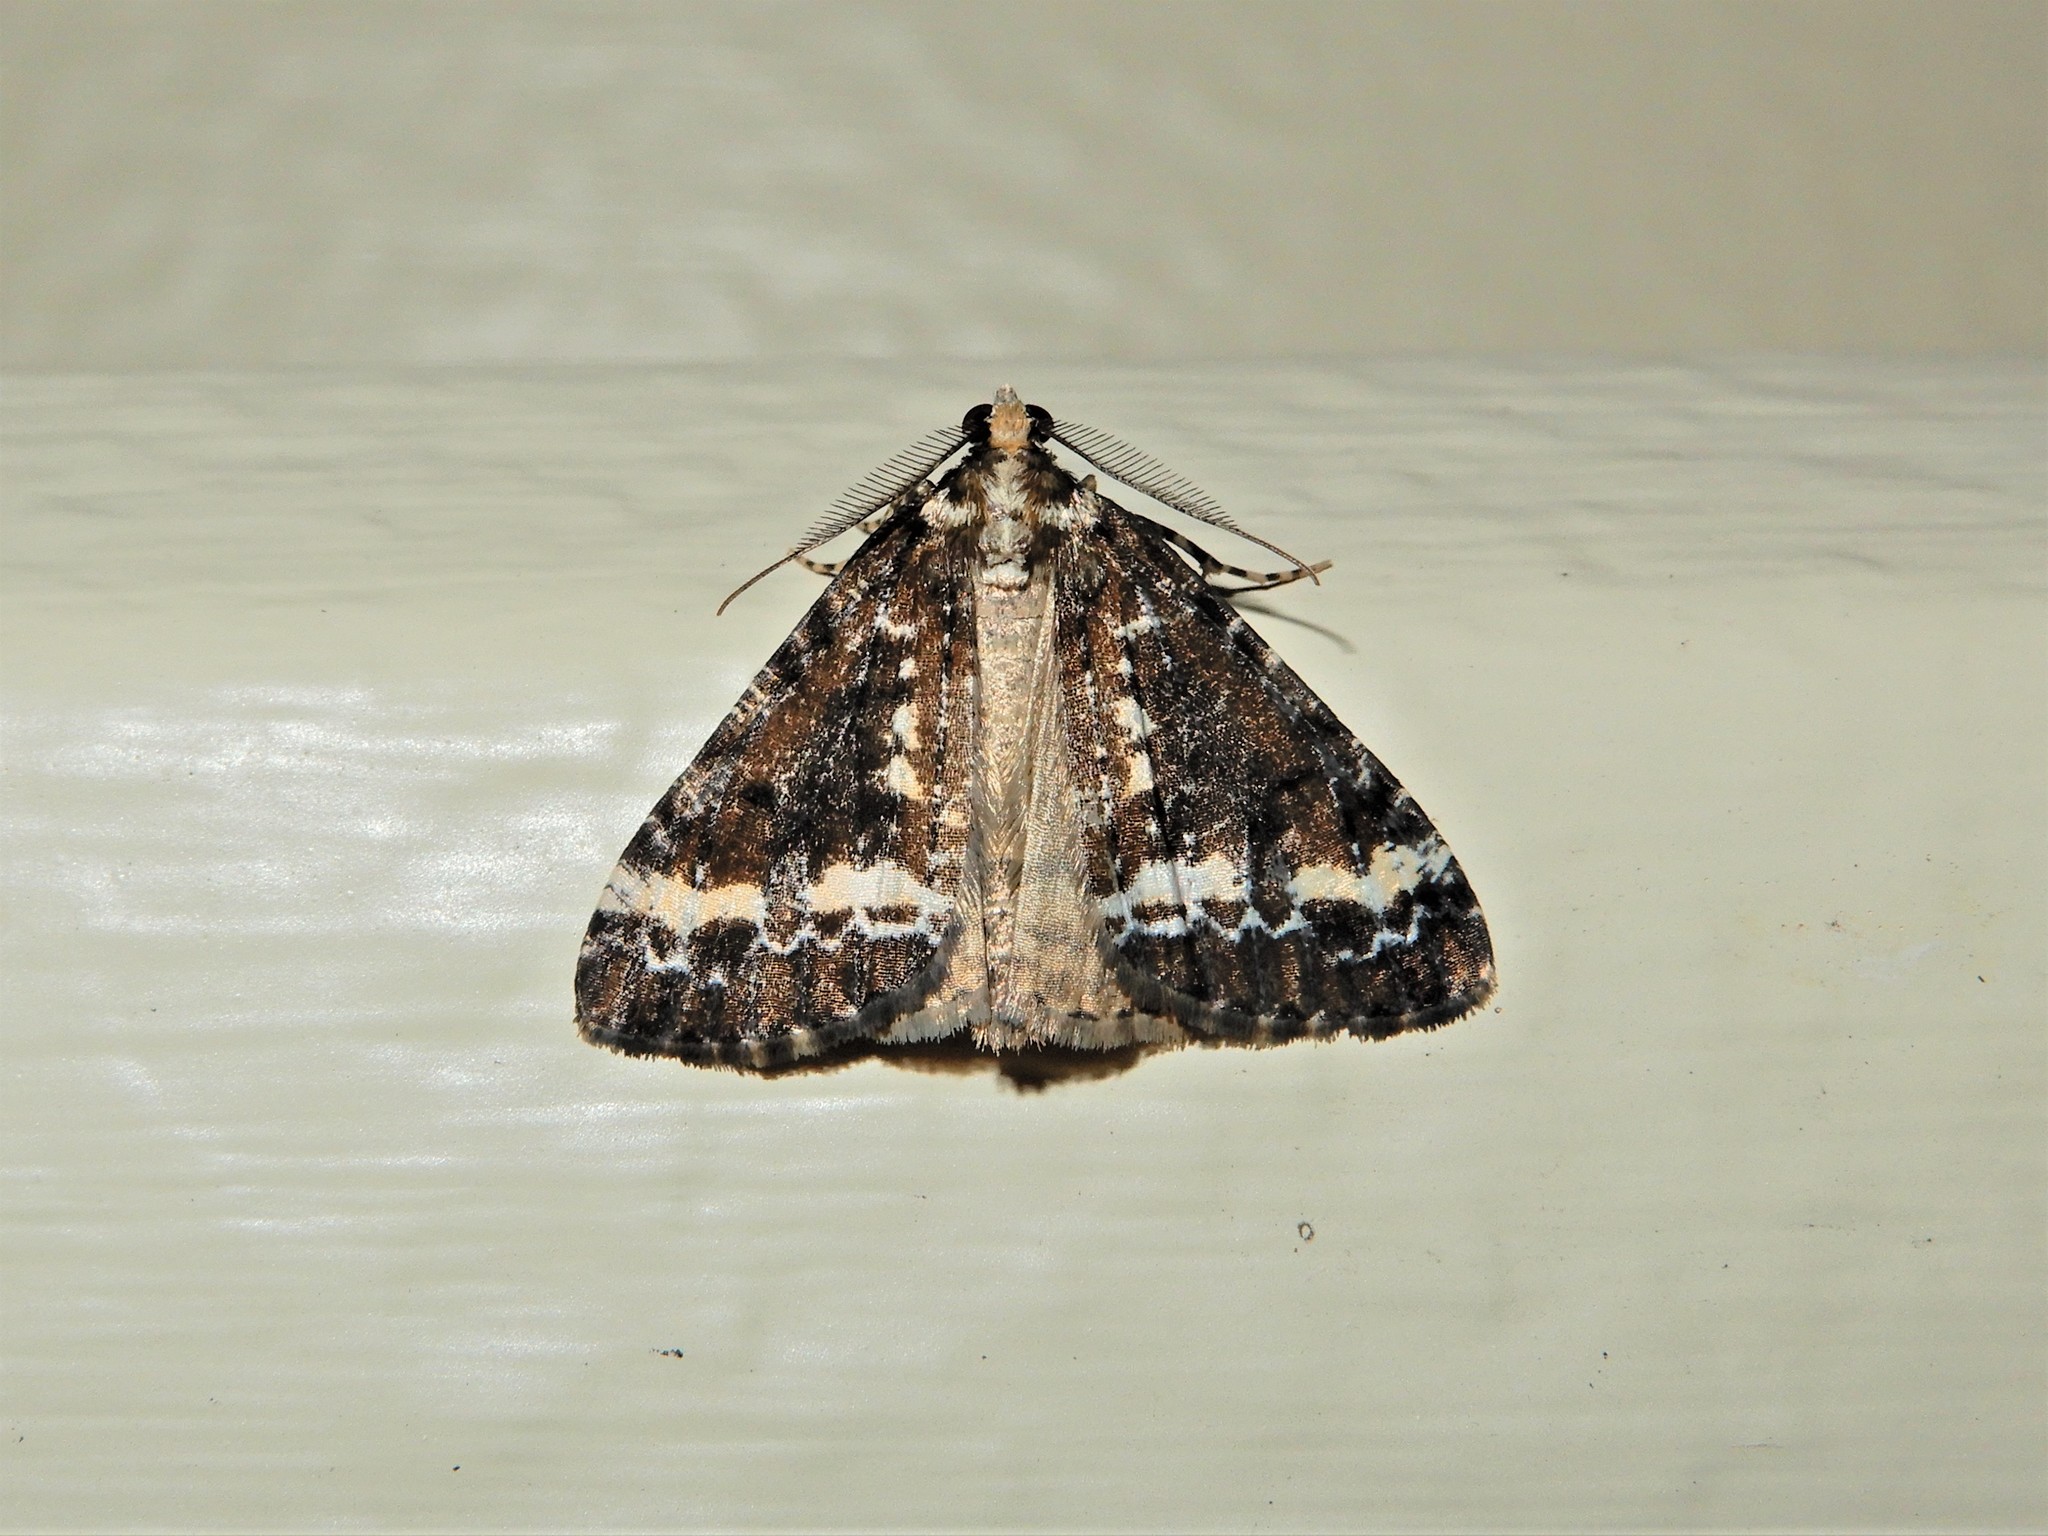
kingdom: Animalia
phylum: Arthropoda
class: Insecta
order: Lepidoptera
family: Geometridae
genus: Pseudocoremia
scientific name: Pseudocoremia leucelaea
